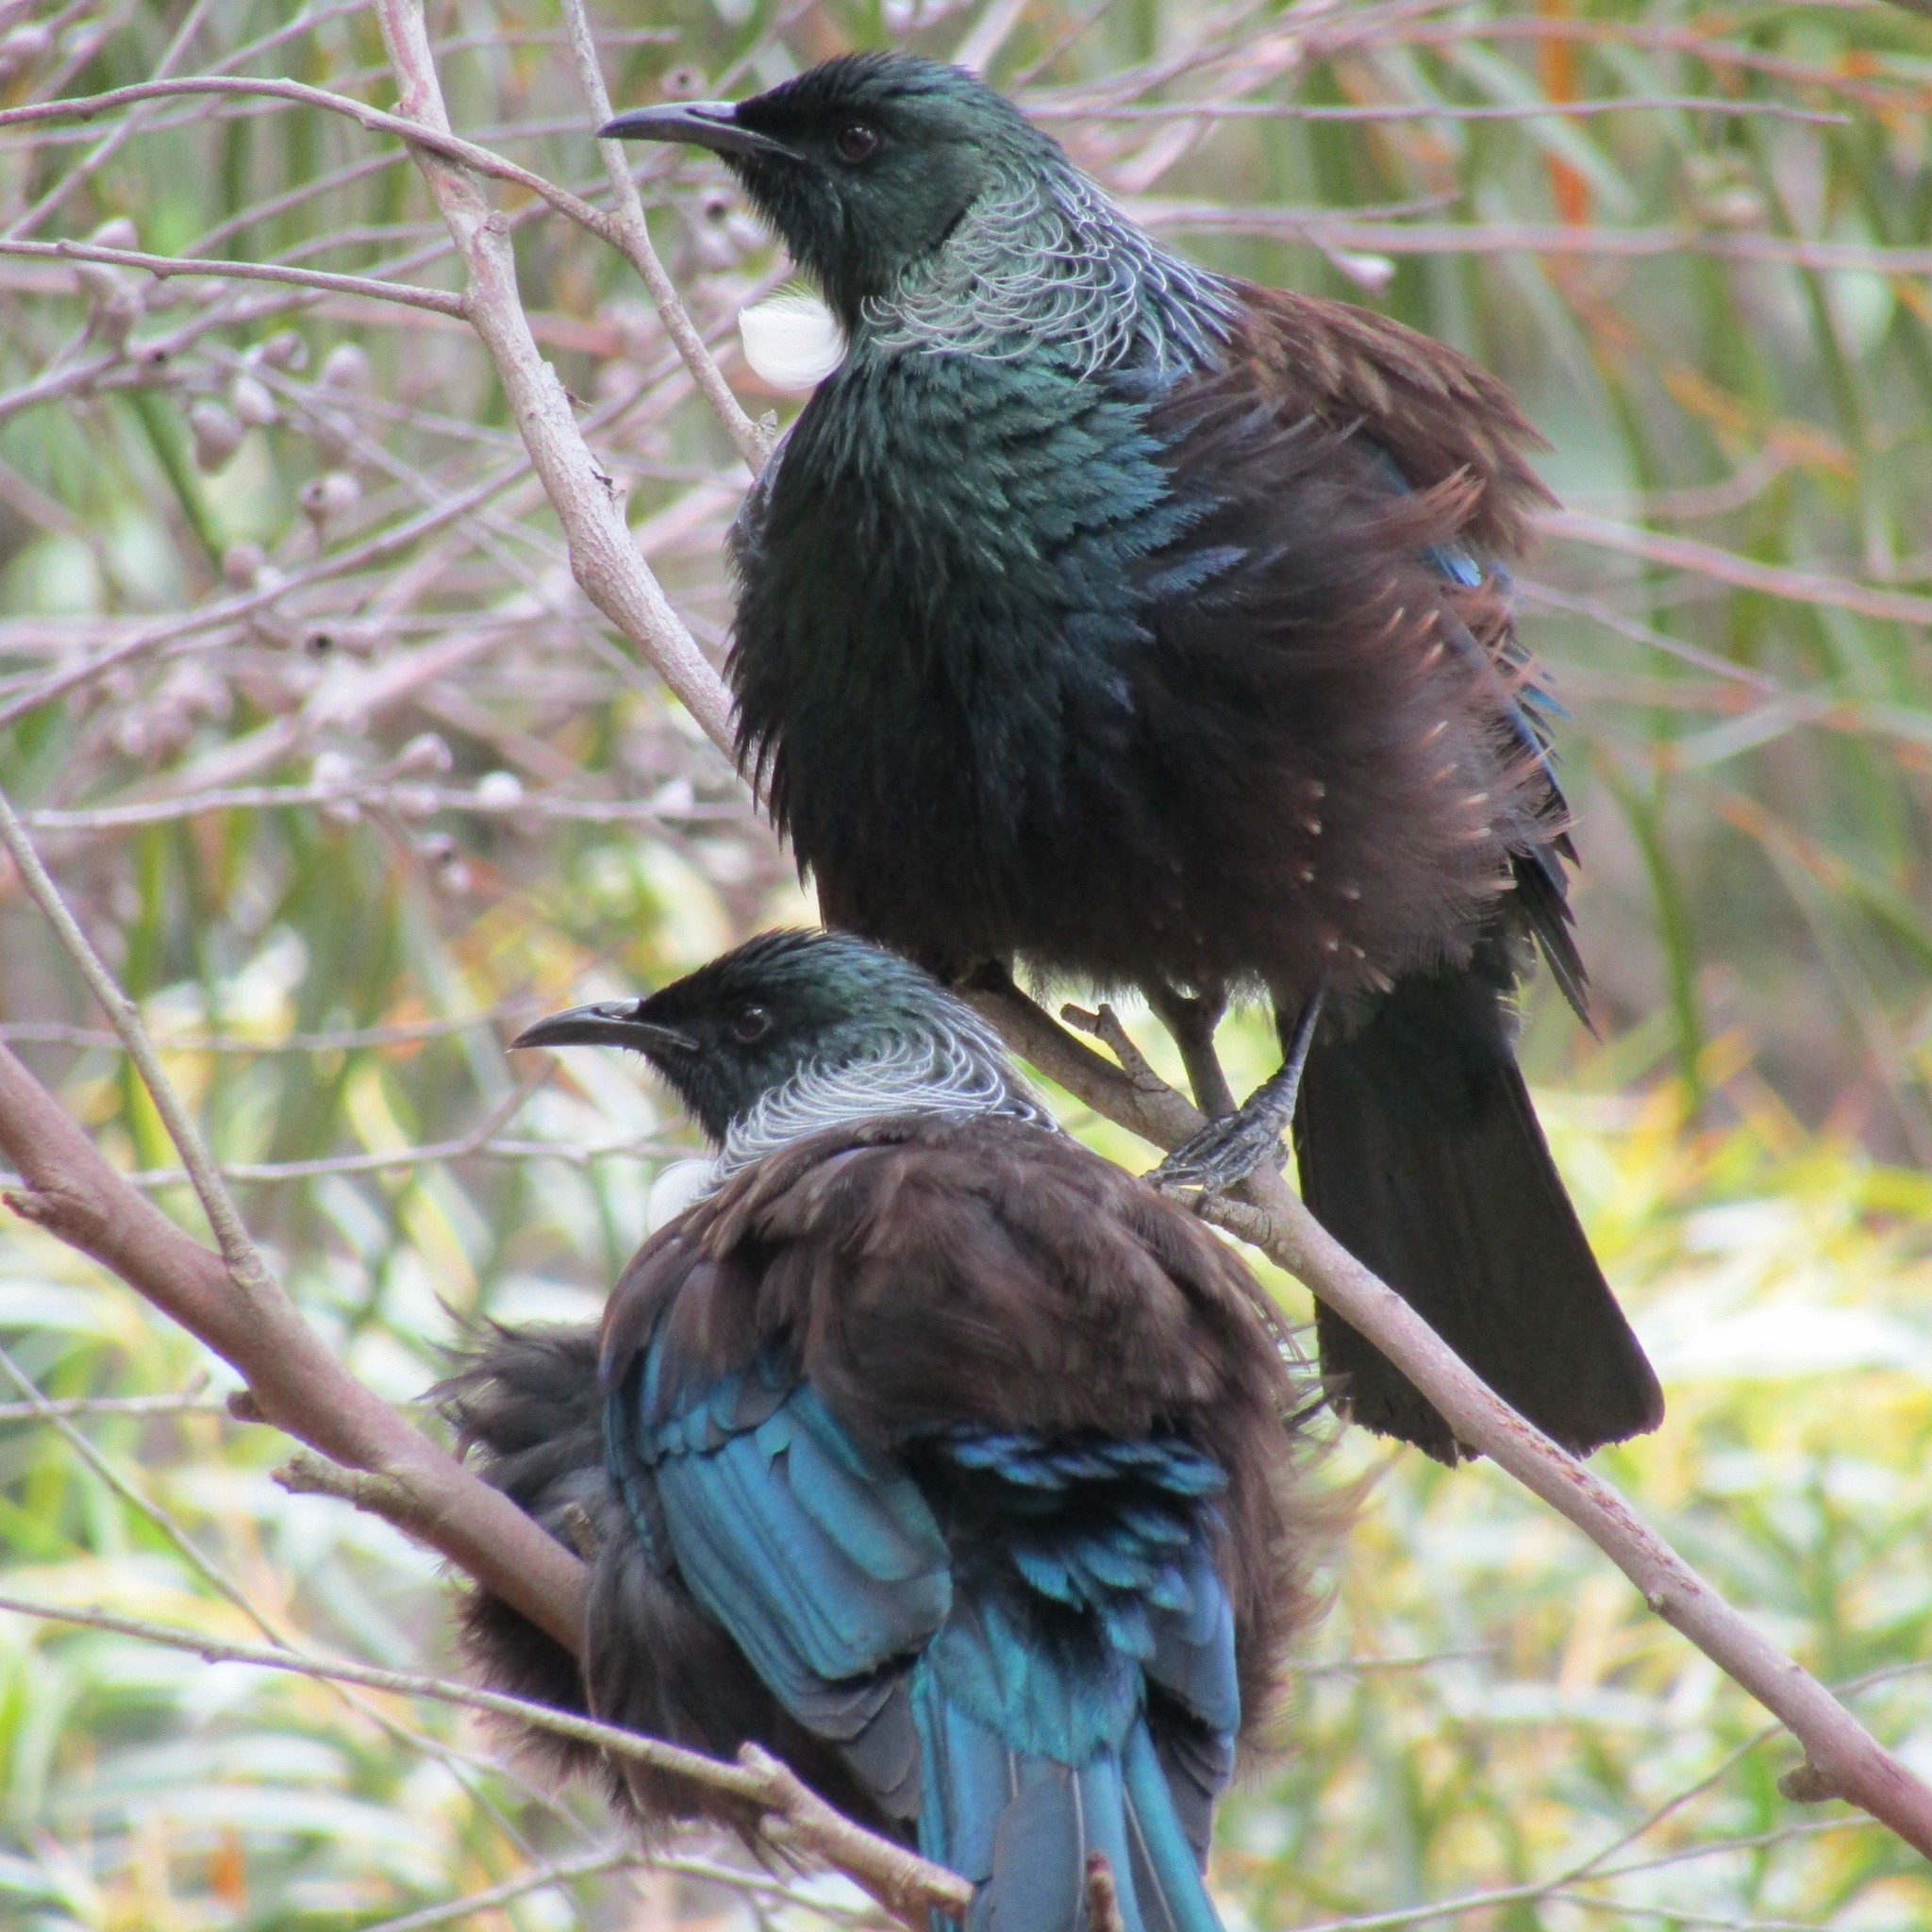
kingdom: Animalia
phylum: Chordata
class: Aves
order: Passeriformes
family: Meliphagidae
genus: Prosthemadera
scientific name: Prosthemadera novaeseelandiae
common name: Tui
